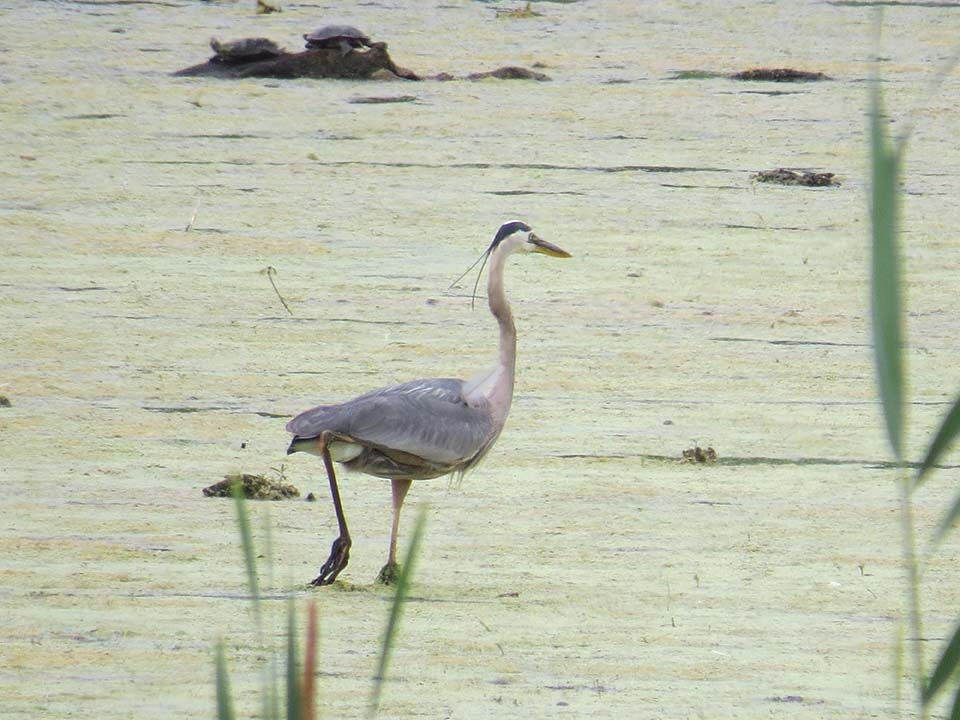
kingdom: Animalia
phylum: Chordata
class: Aves
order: Pelecaniformes
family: Ardeidae
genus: Ardea
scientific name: Ardea herodias
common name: Great blue heron
